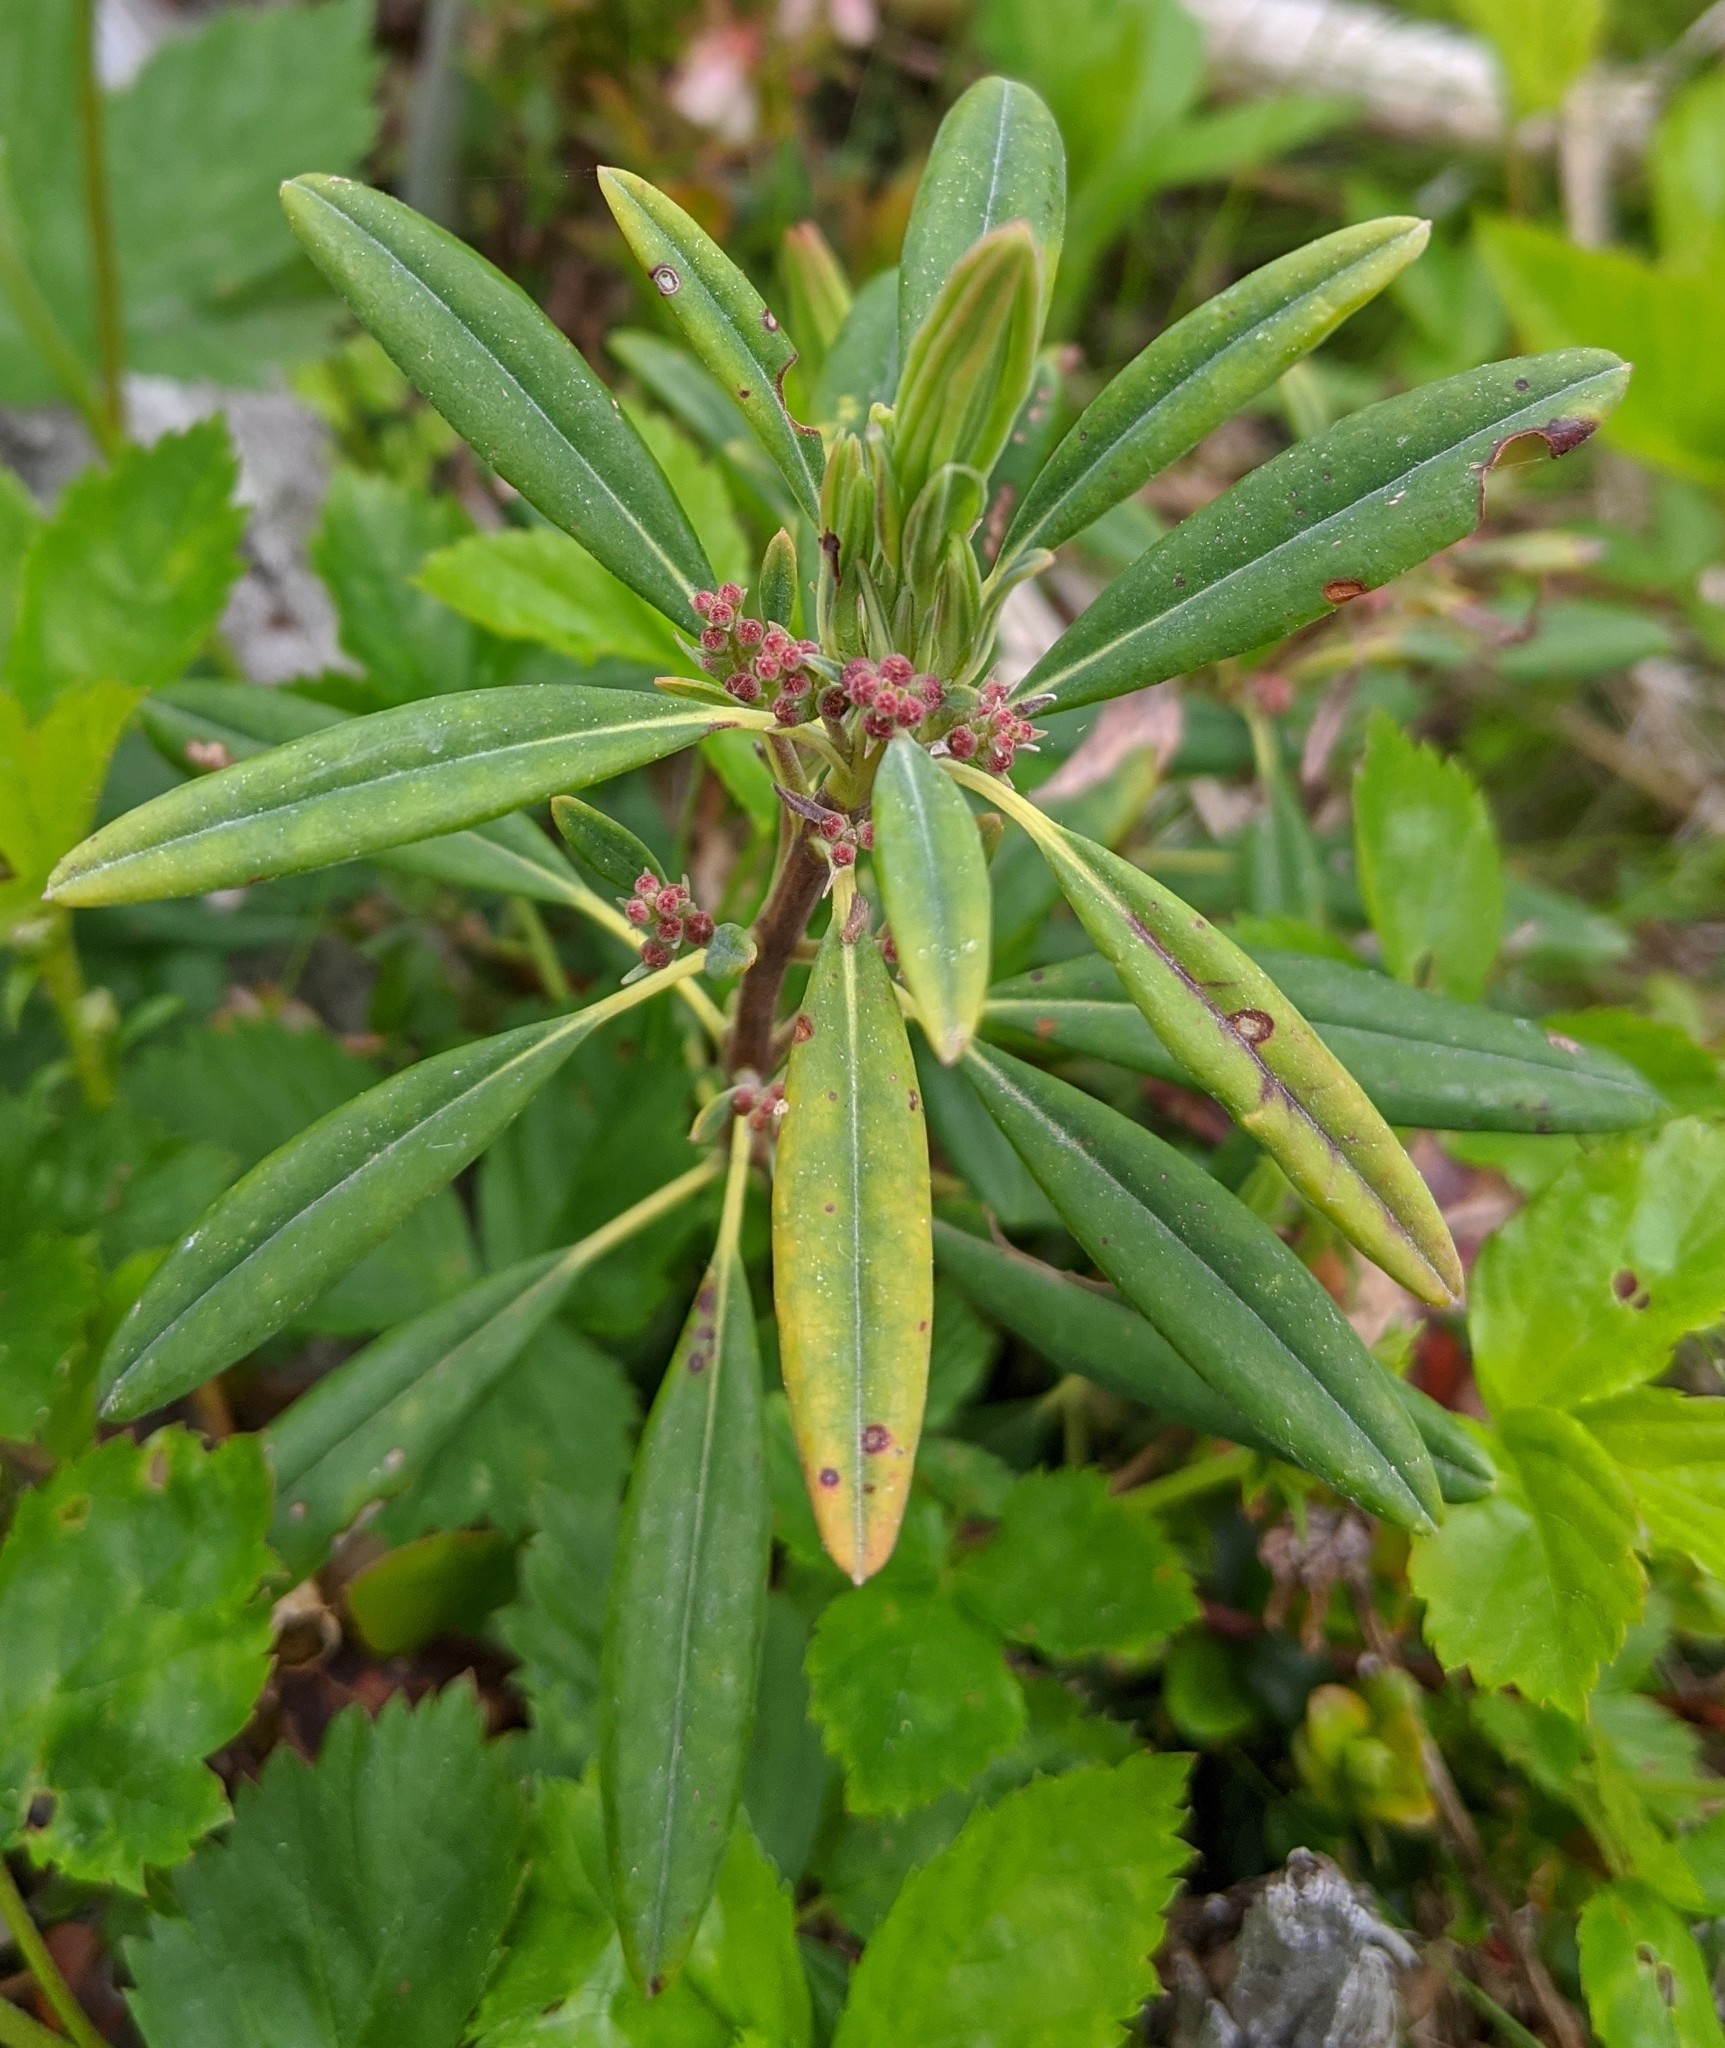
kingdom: Plantae
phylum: Tracheophyta
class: Magnoliopsida
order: Ericales
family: Ericaceae
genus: Kalmia
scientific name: Kalmia angustifolia
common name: Sheep-laurel
